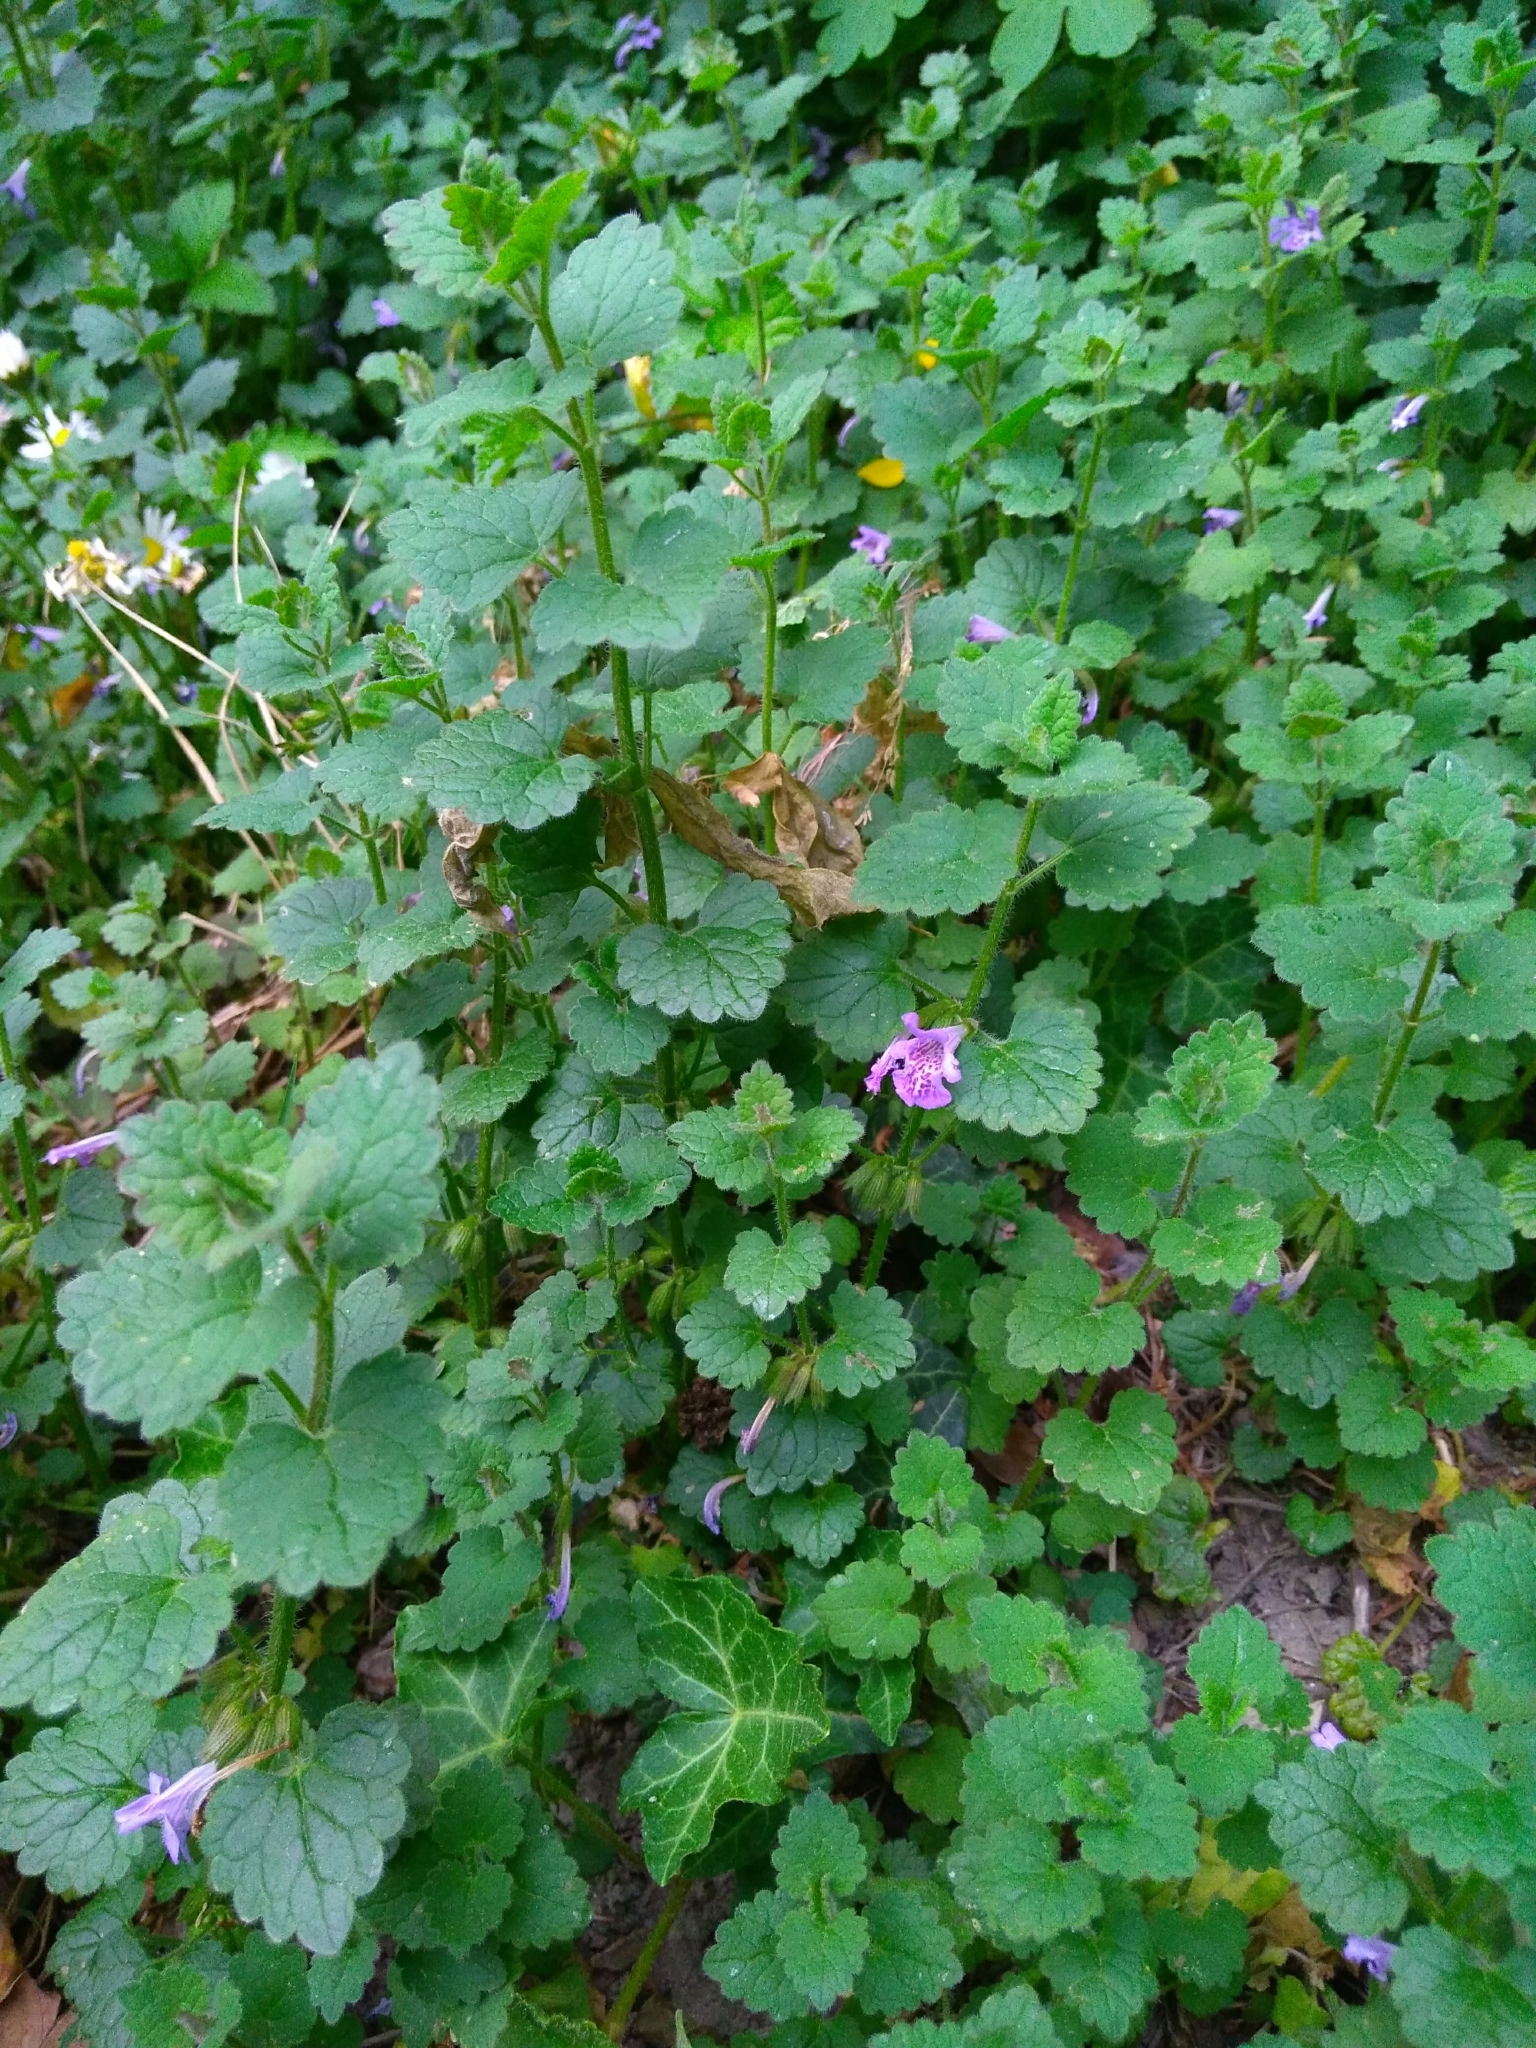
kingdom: Plantae
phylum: Tracheophyta
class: Magnoliopsida
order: Lamiales
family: Lamiaceae
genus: Glechoma
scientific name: Glechoma hederacea
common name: Ground ivy
